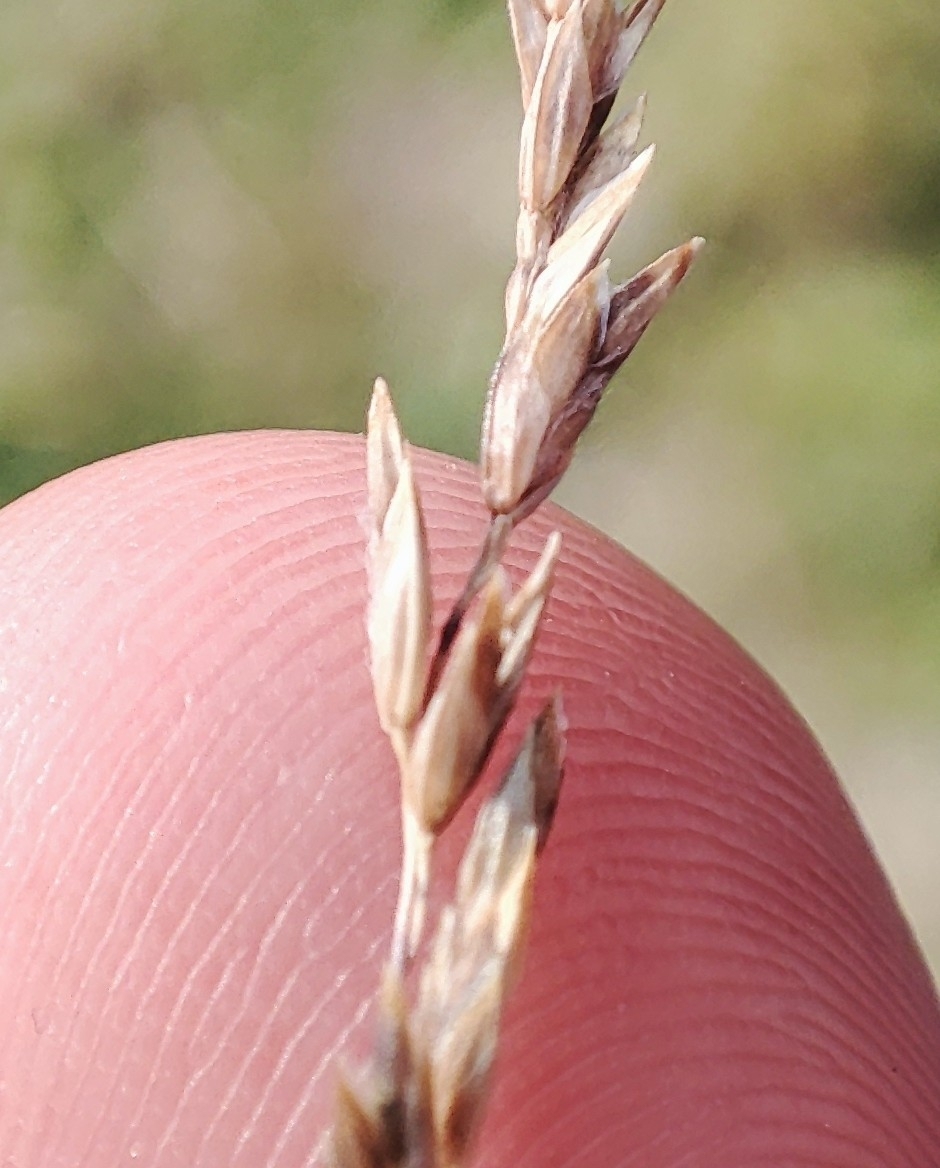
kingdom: Plantae
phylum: Tracheophyta
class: Liliopsida
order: Poales
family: Poaceae
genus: Poa
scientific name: Poa angustifolia
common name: Narrow-leaved meadow-grass
